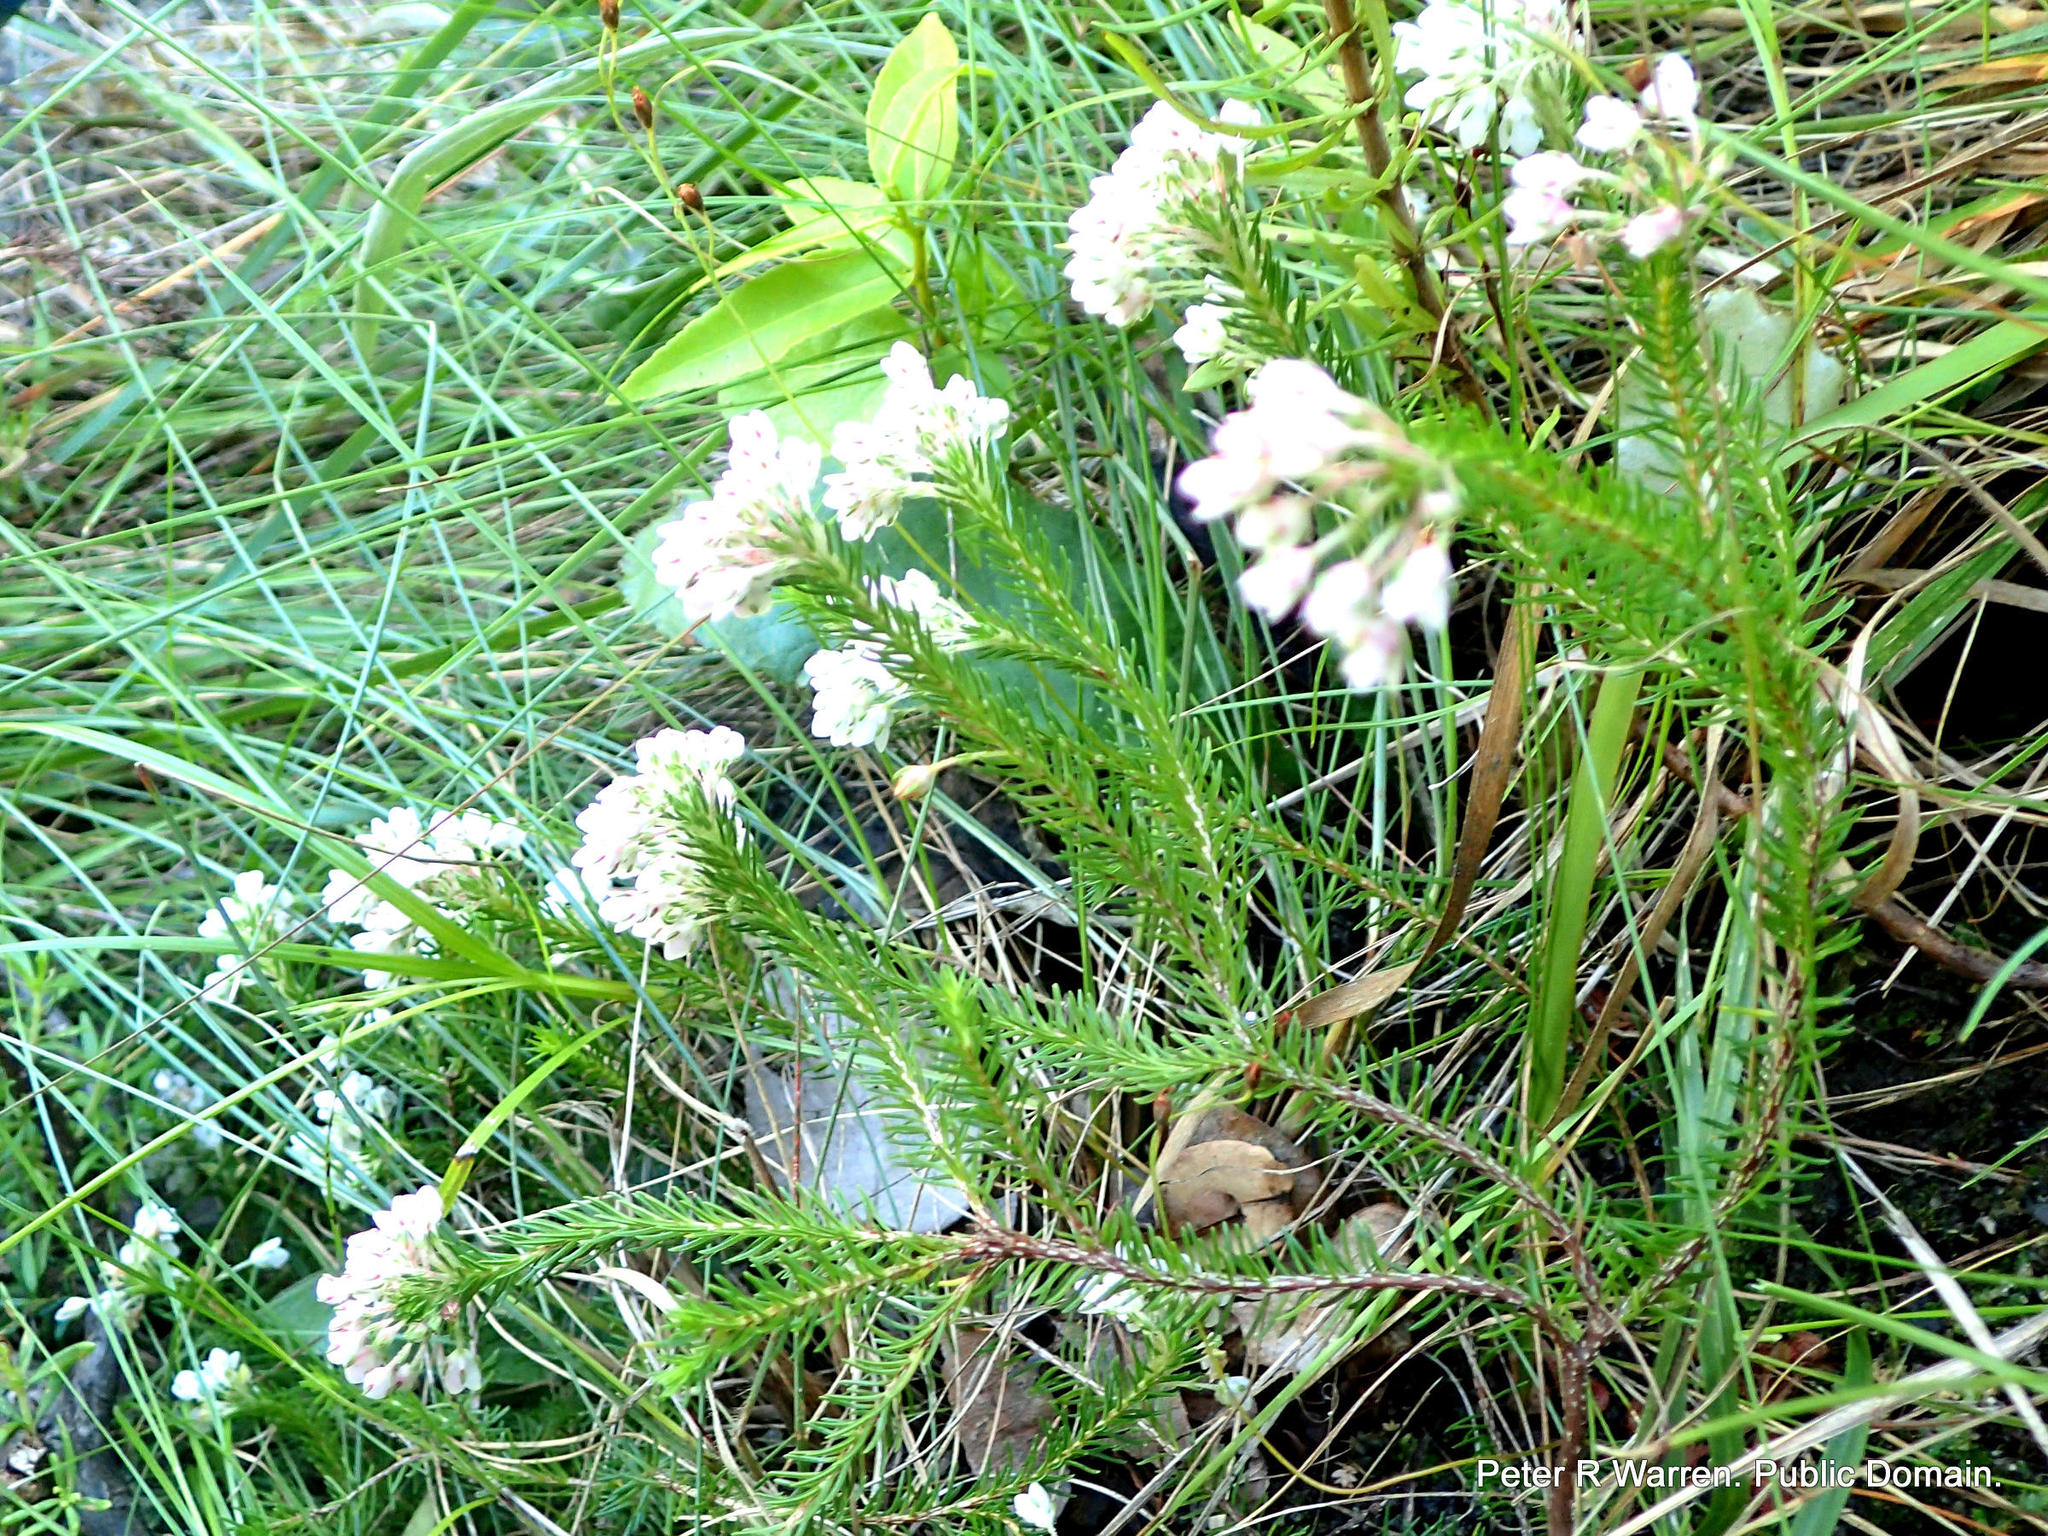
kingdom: Plantae
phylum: Tracheophyta
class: Magnoliopsida
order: Ericales
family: Ericaceae
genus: Erica
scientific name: Erica cubica
